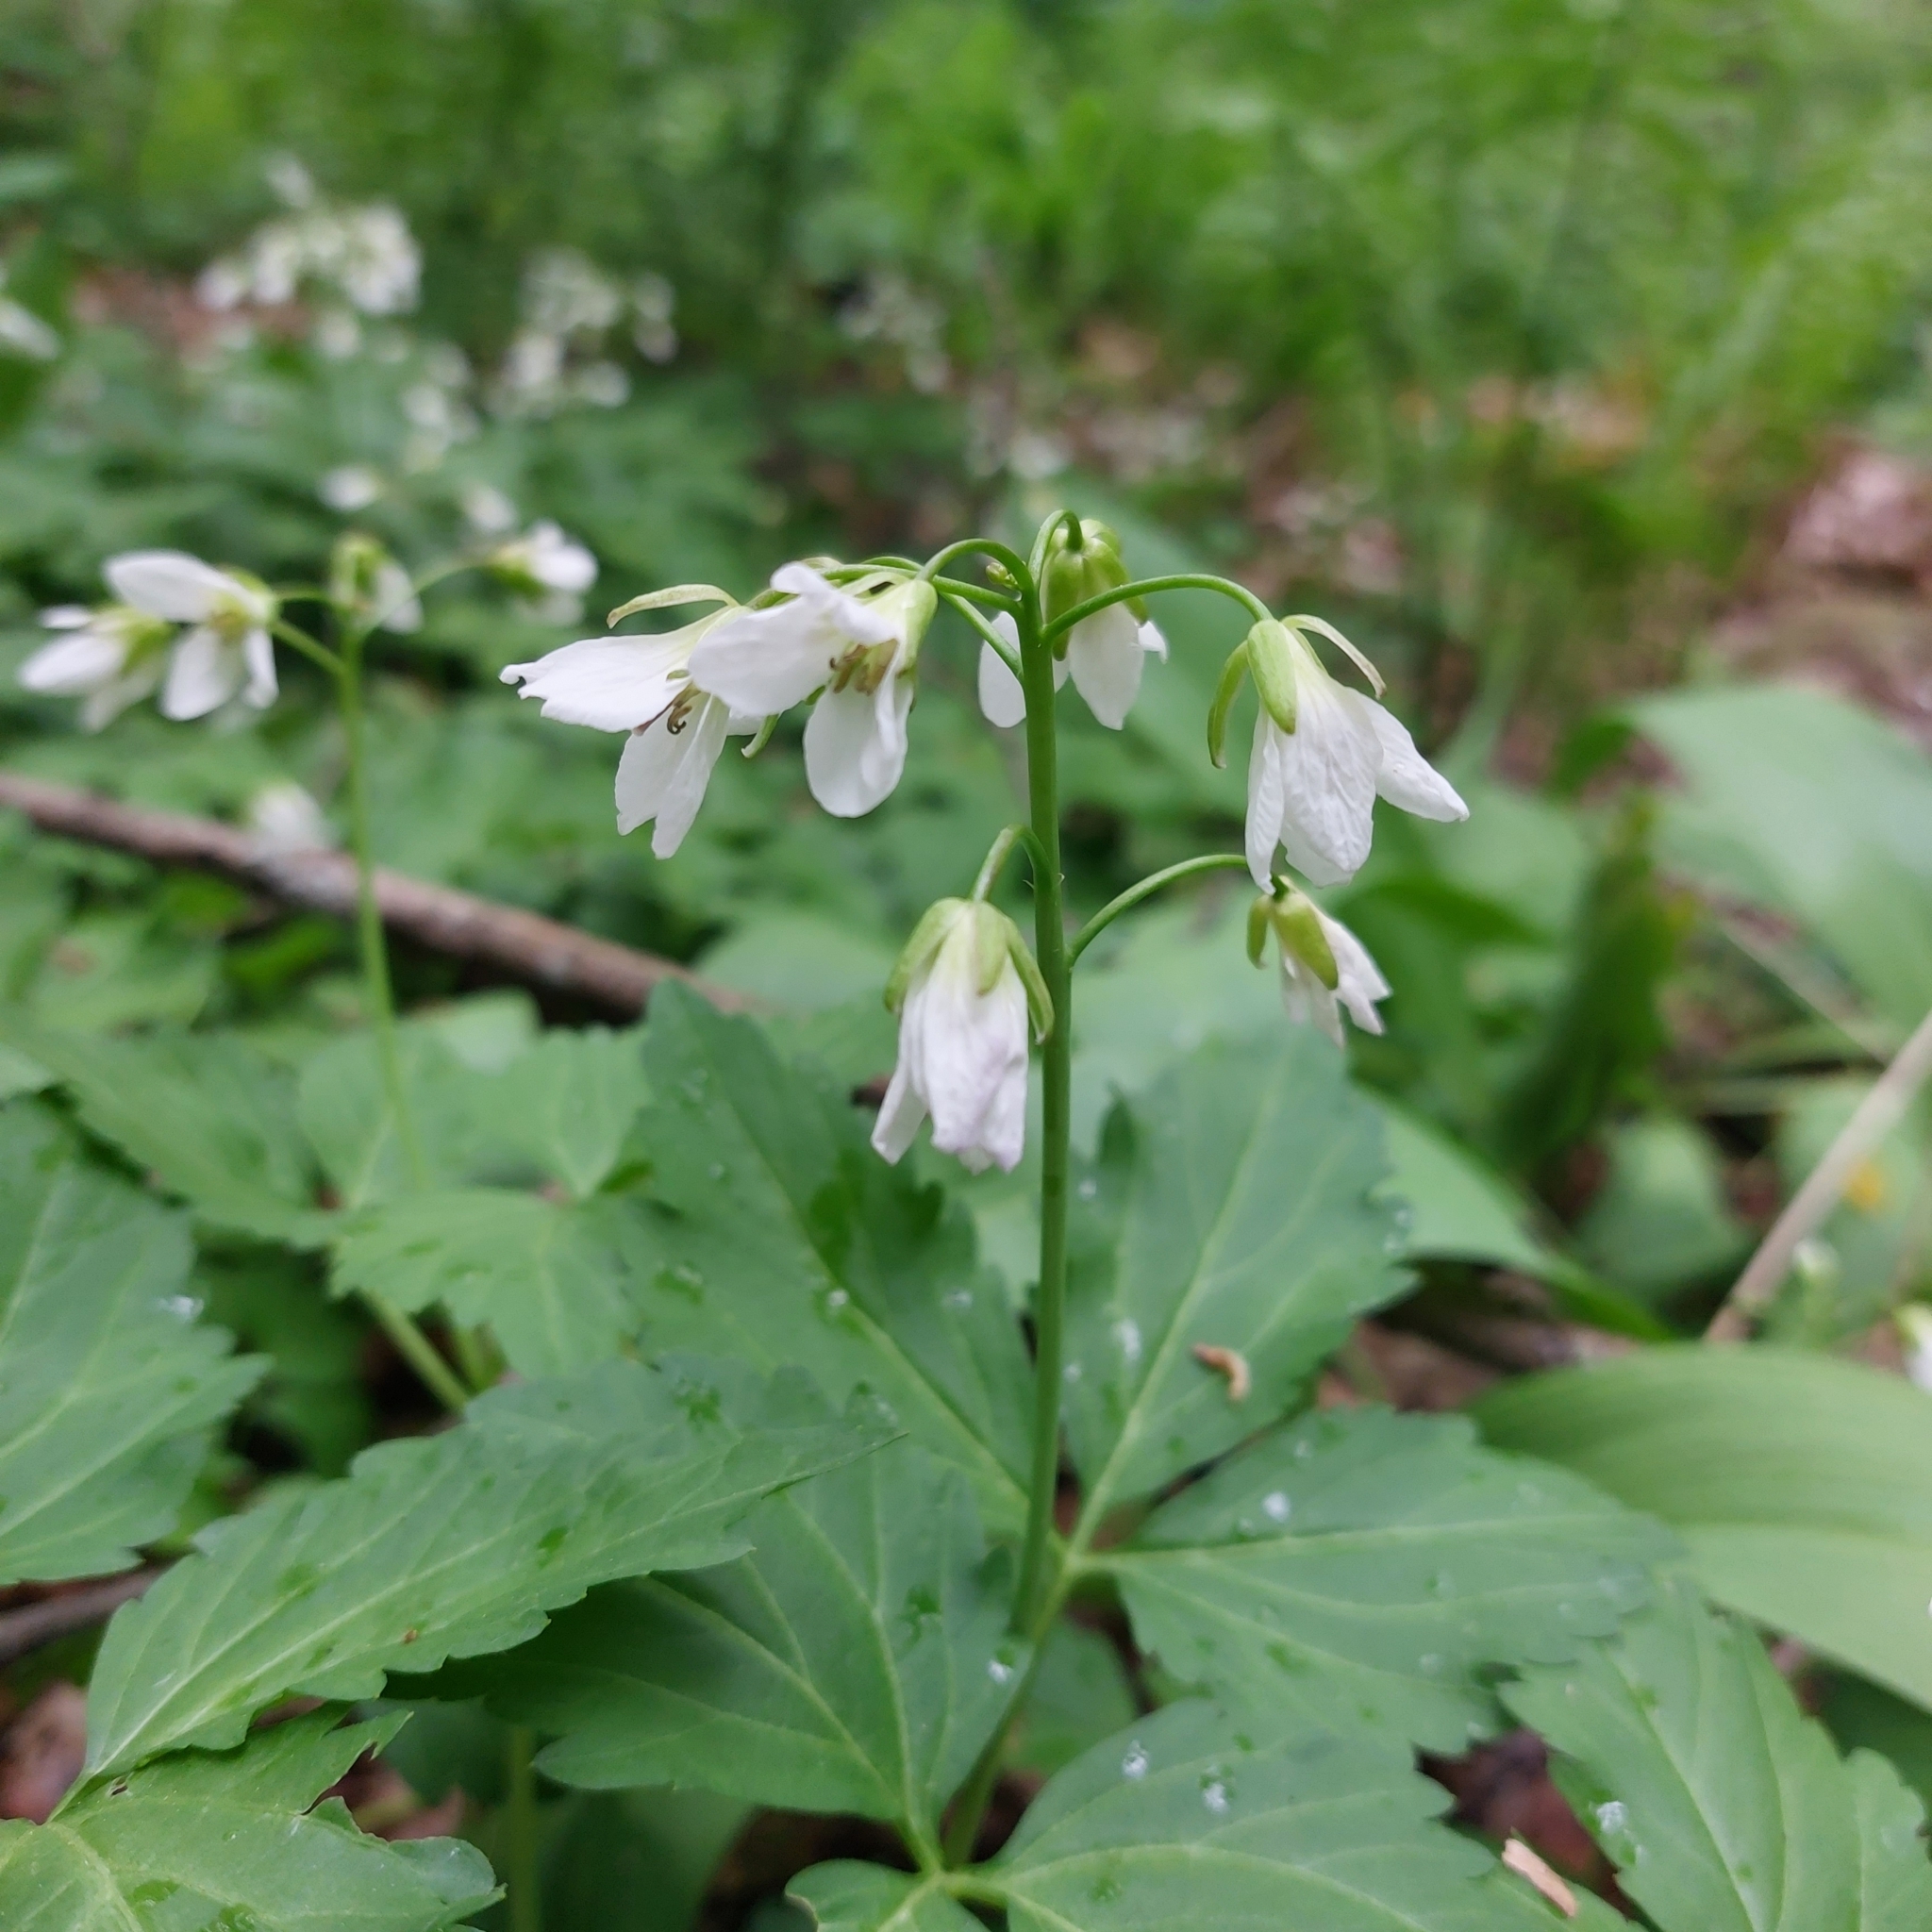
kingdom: Plantae
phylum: Tracheophyta
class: Magnoliopsida
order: Brassicales
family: Brassicaceae
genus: Cardamine
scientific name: Cardamine diphylla
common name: Broad-leaved toothwort
